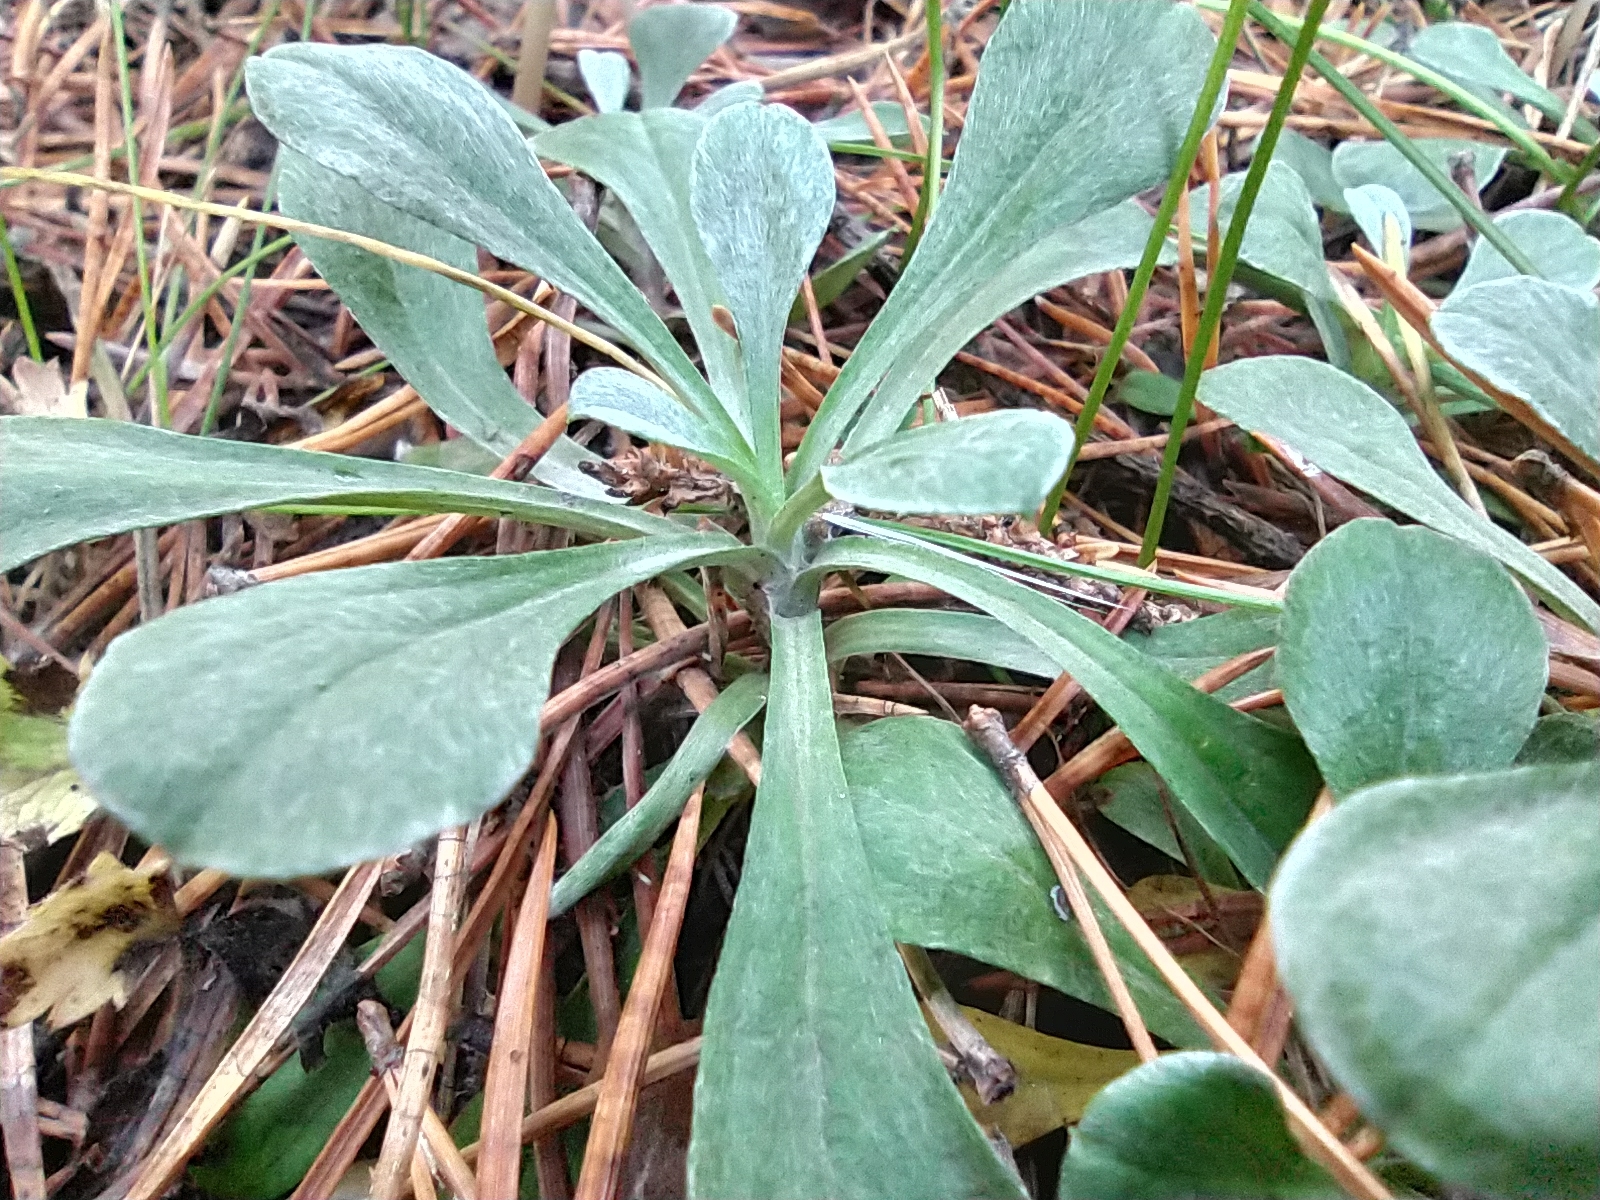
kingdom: Plantae
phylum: Tracheophyta
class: Magnoliopsida
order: Asterales
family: Asteraceae
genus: Antennaria
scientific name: Antennaria dioica
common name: Mountain everlasting
